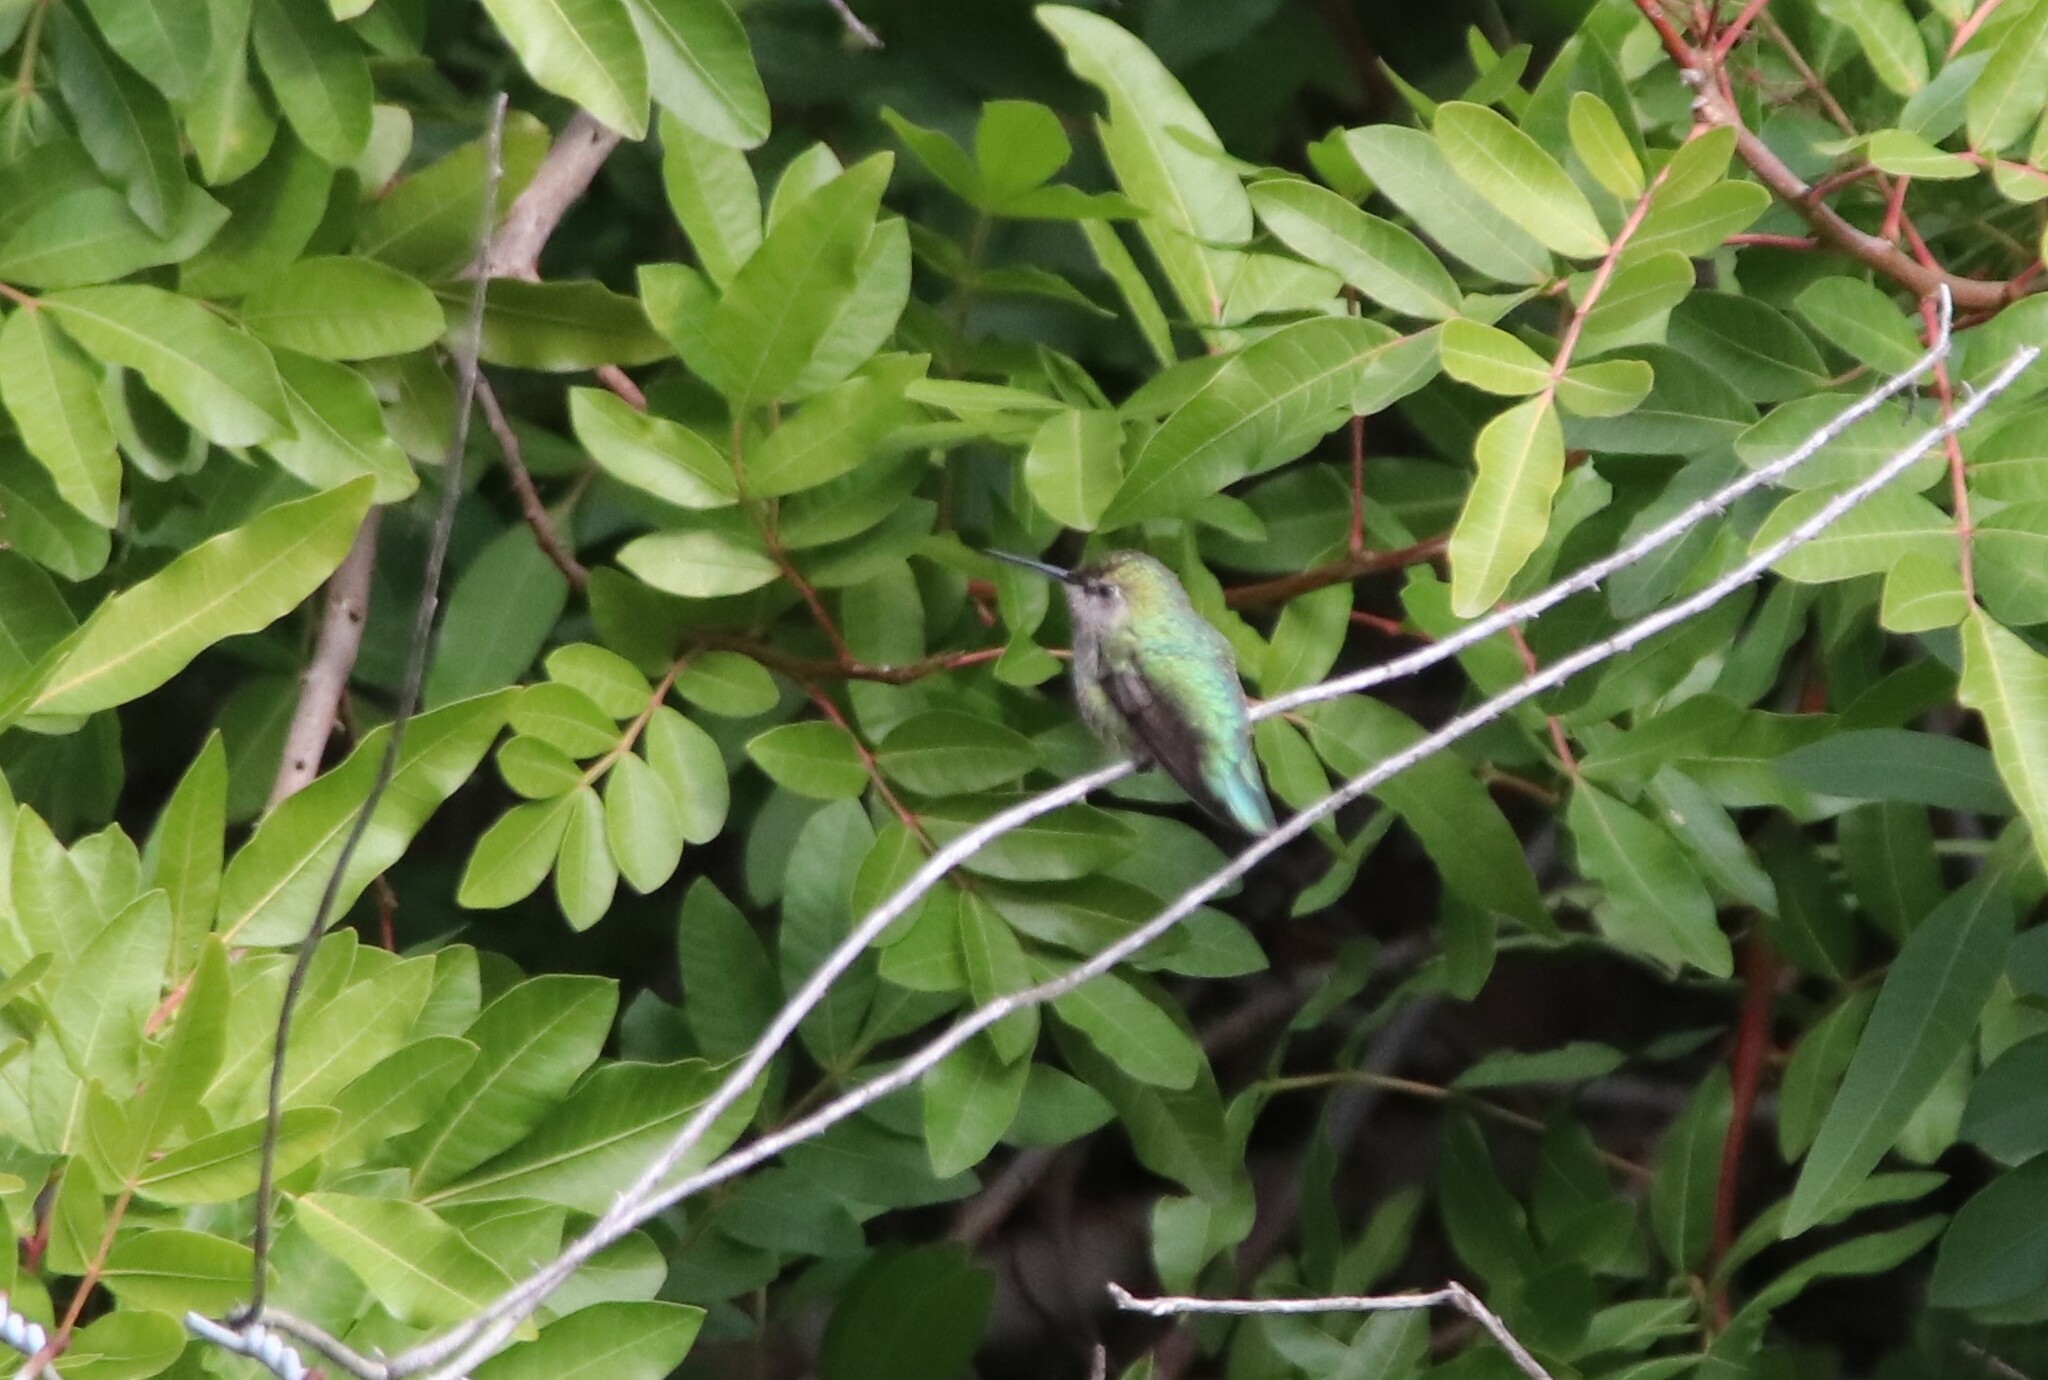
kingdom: Animalia
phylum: Chordata
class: Aves
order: Apodiformes
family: Trochilidae
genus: Calypte
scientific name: Calypte anna
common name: Anna's hummingbird
